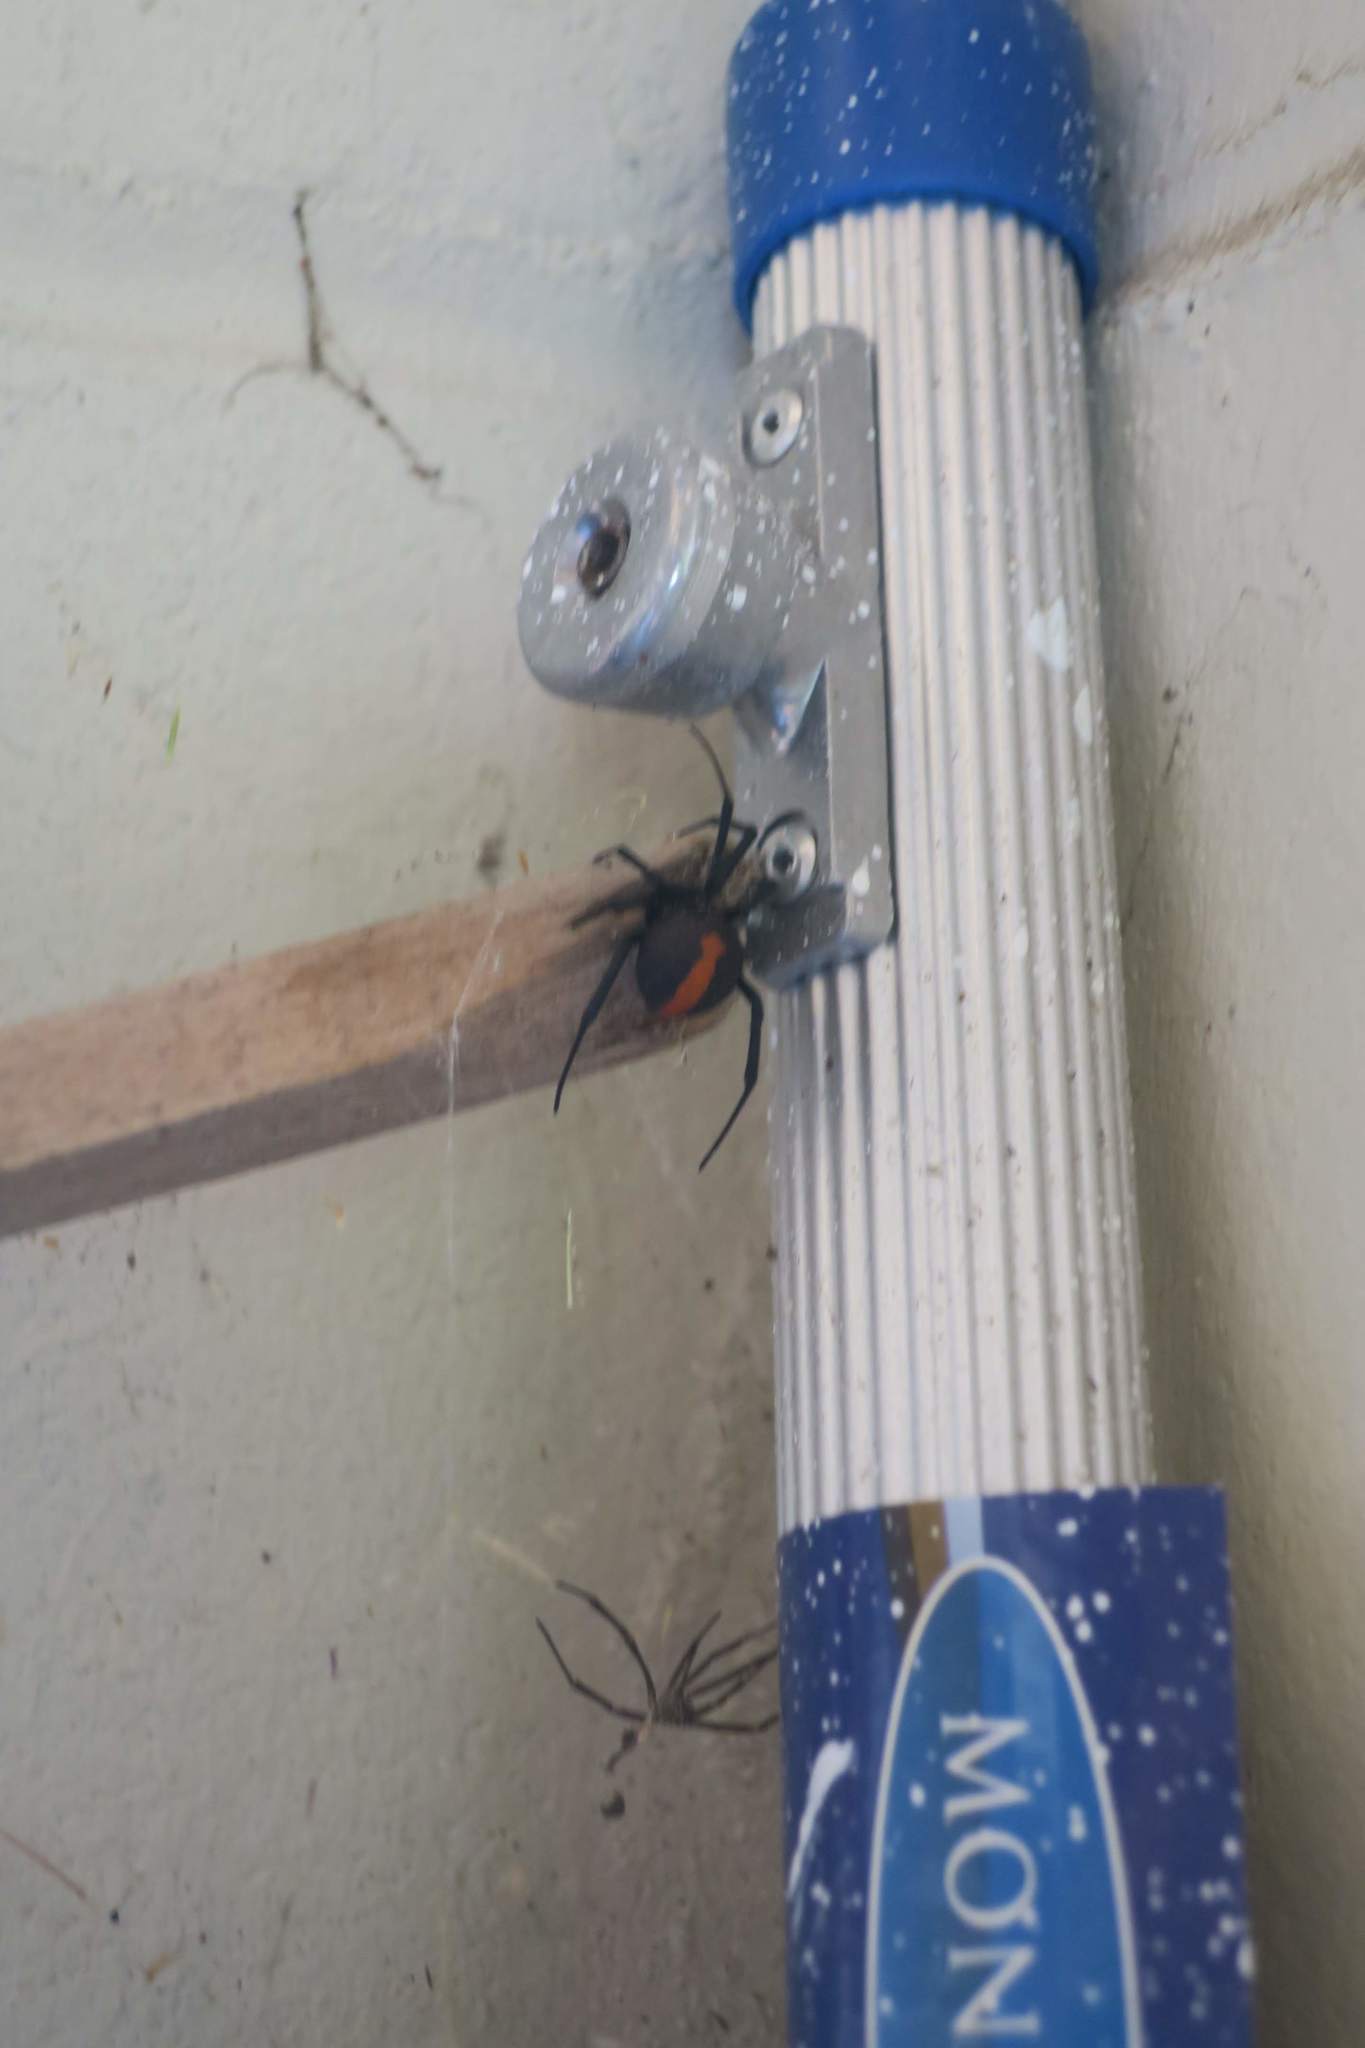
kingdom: Animalia
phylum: Arthropoda
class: Arachnida
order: Araneae
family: Theridiidae
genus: Latrodectus
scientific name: Latrodectus hasselti
